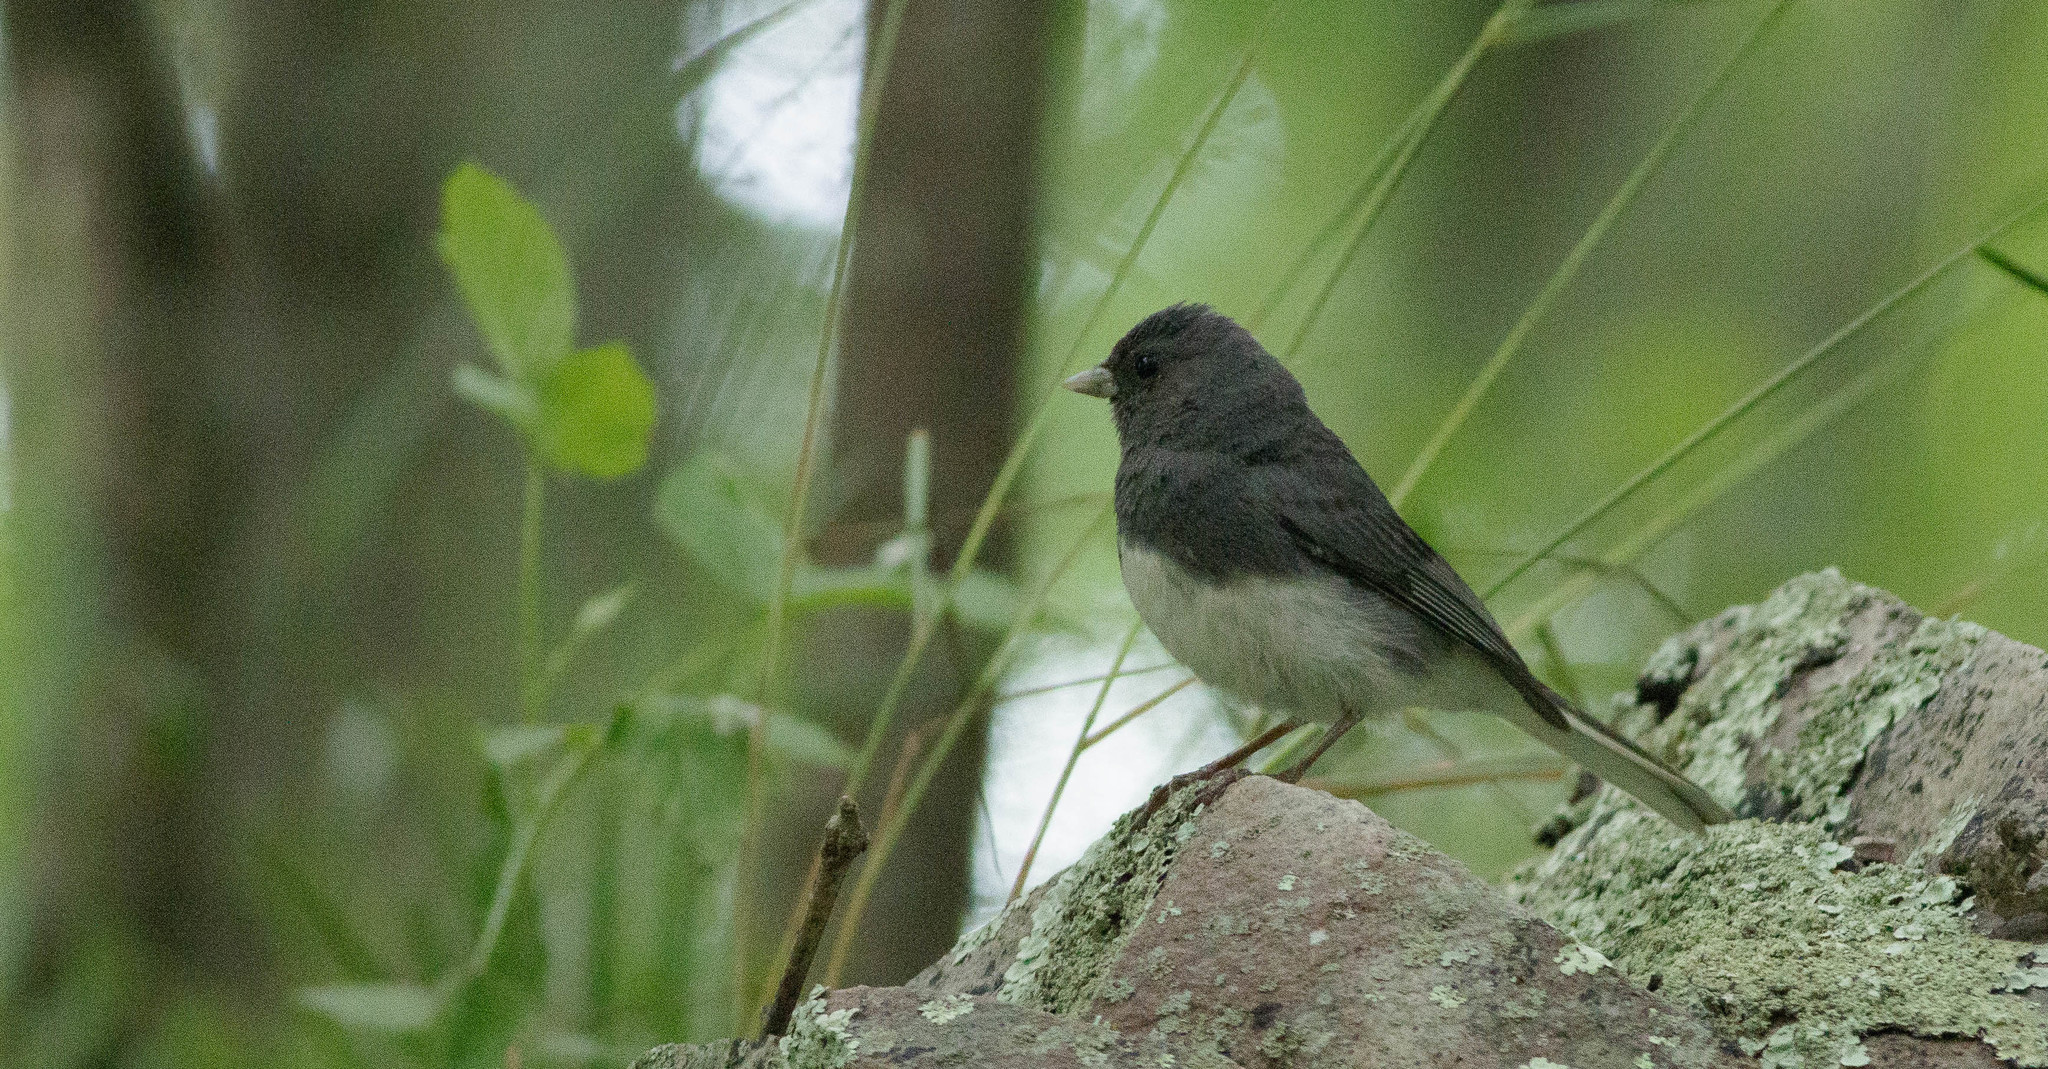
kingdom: Animalia
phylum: Chordata
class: Aves
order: Passeriformes
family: Passerellidae
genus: Junco
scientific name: Junco hyemalis
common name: Dark-eyed junco
